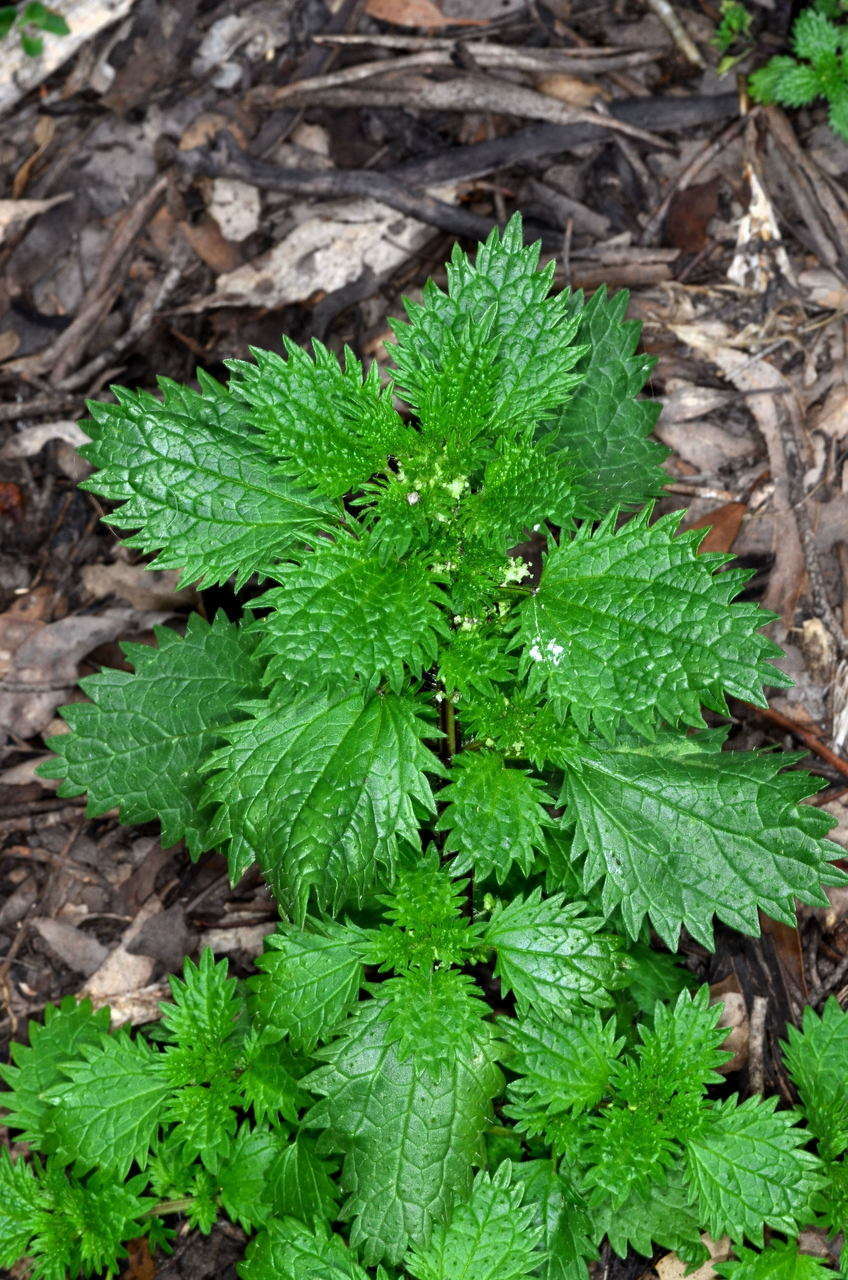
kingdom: Plantae
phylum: Tracheophyta
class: Magnoliopsida
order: Rosales
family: Urticaceae
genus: Urtica
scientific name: Urtica urens
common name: Dwarf nettle
